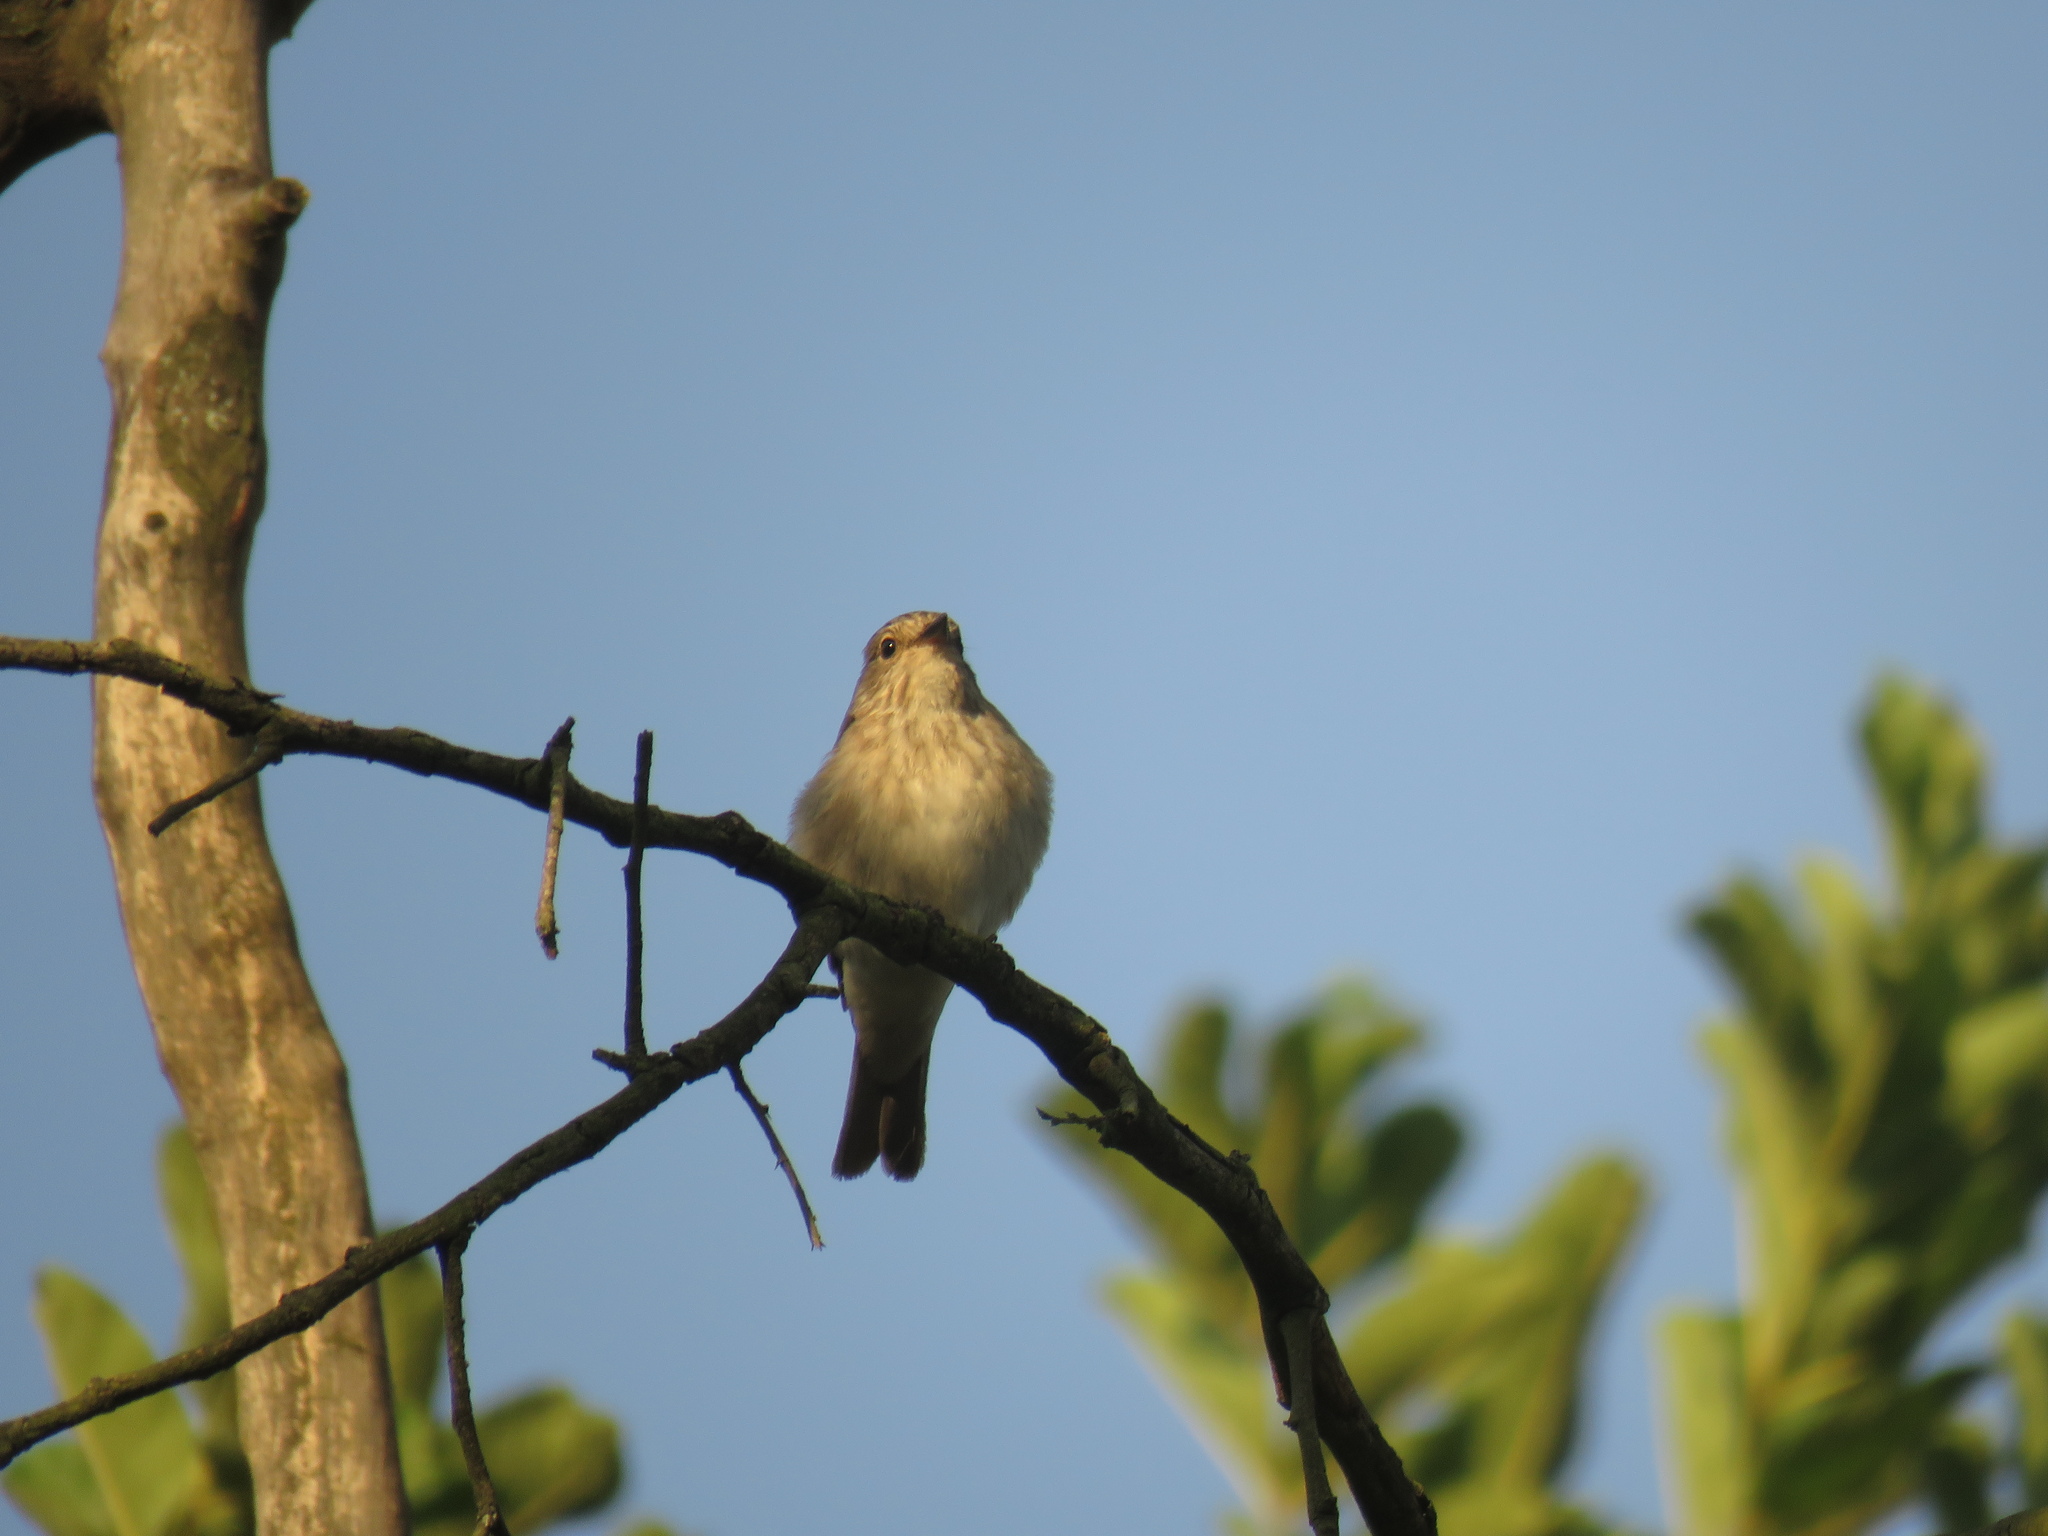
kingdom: Animalia
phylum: Chordata
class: Aves
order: Passeriformes
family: Muscicapidae
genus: Muscicapa
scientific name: Muscicapa striata
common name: Spotted flycatcher
